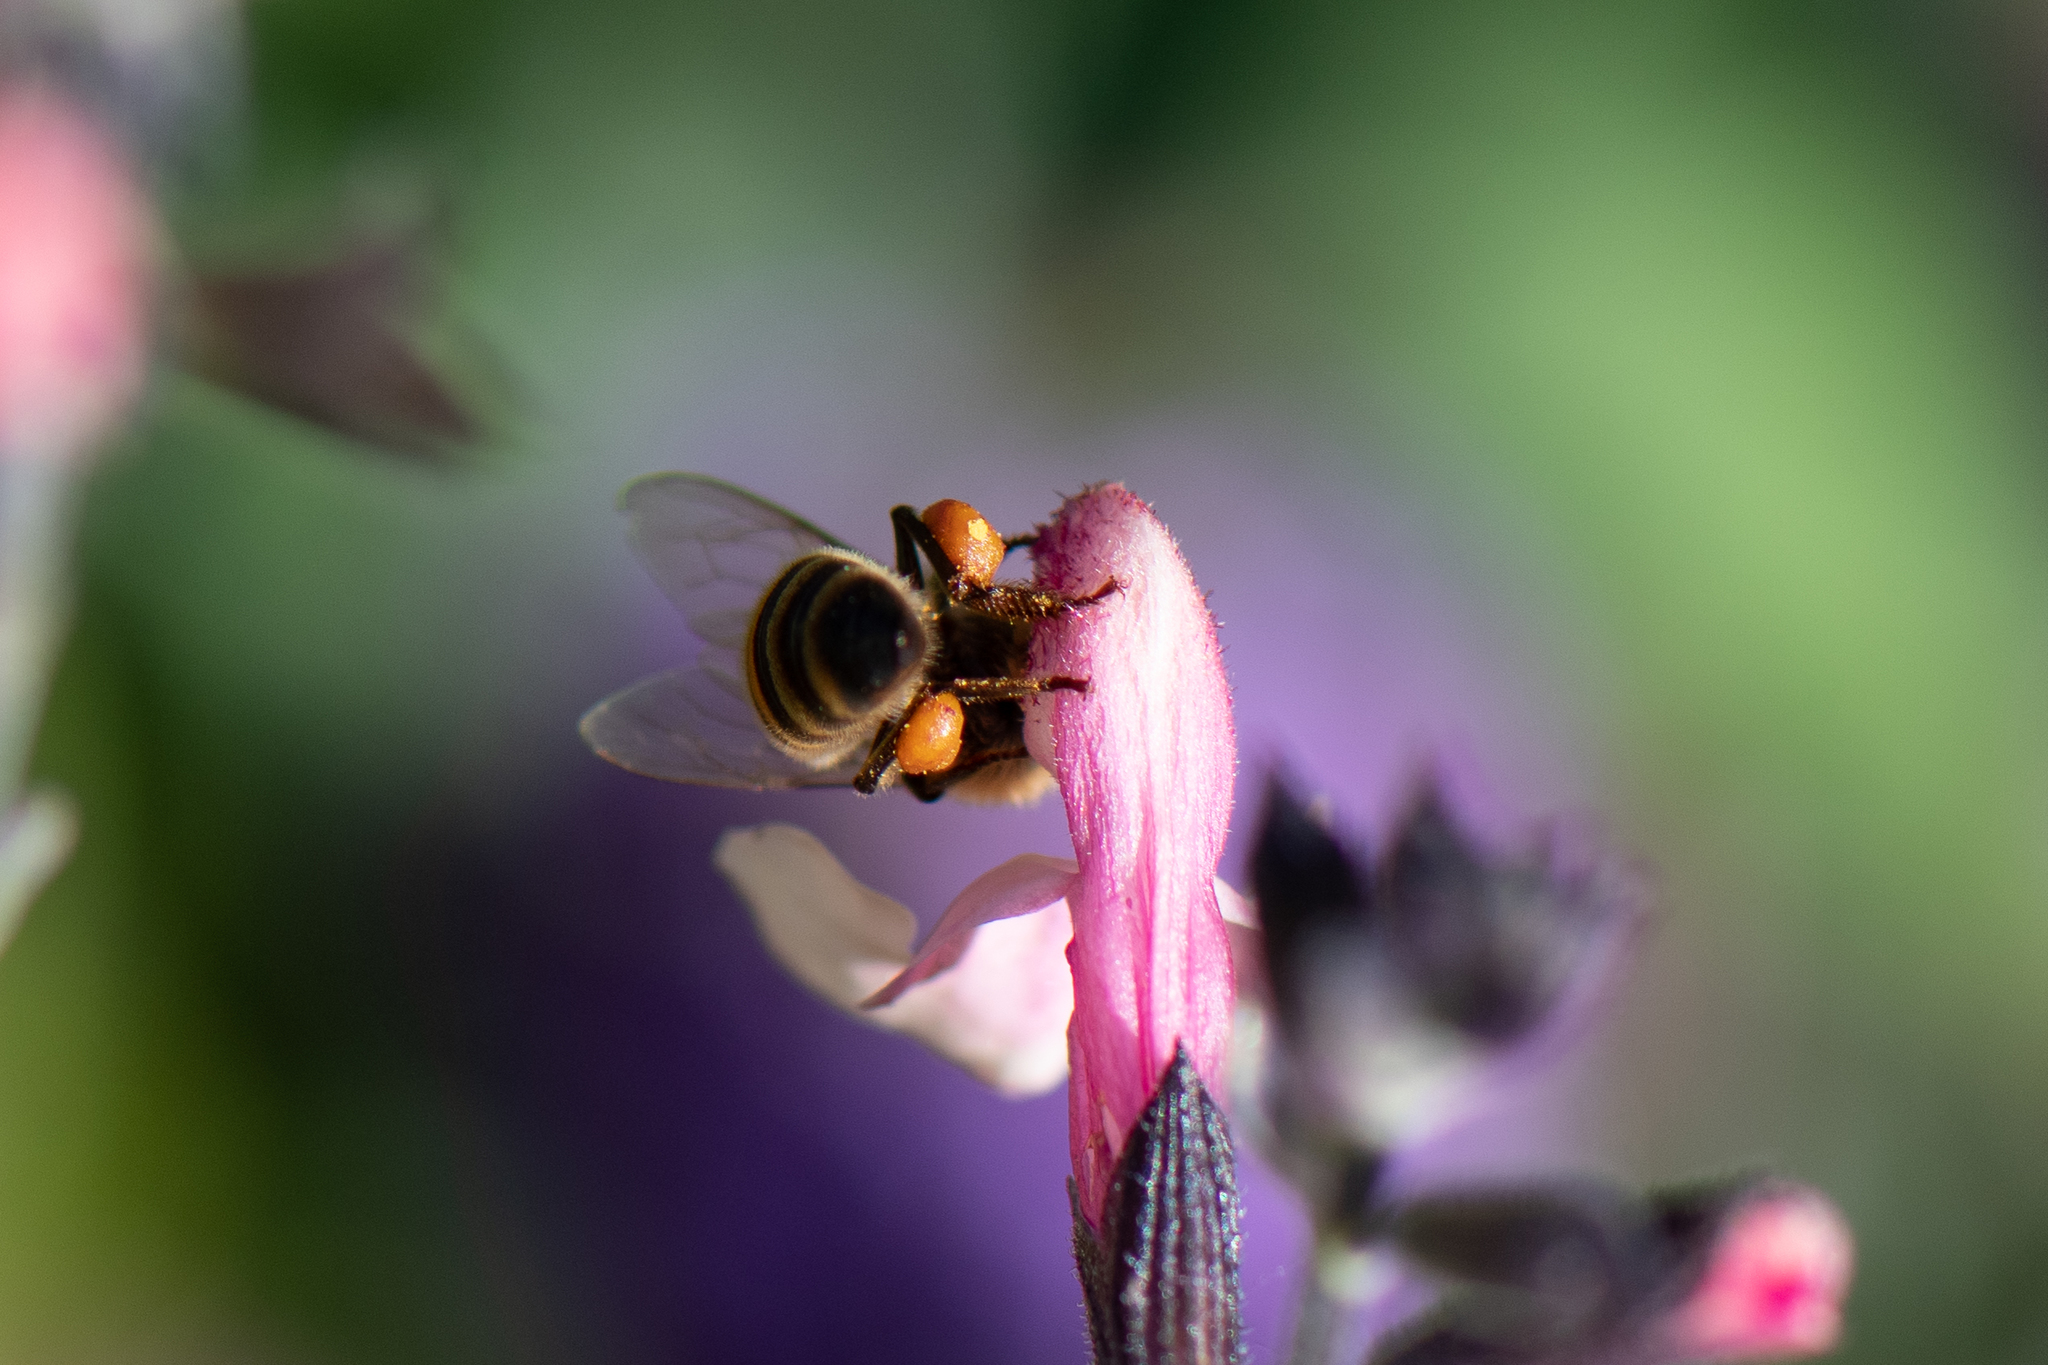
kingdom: Animalia
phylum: Arthropoda
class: Insecta
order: Hymenoptera
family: Apidae
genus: Apis
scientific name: Apis mellifera
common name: Honey bee
